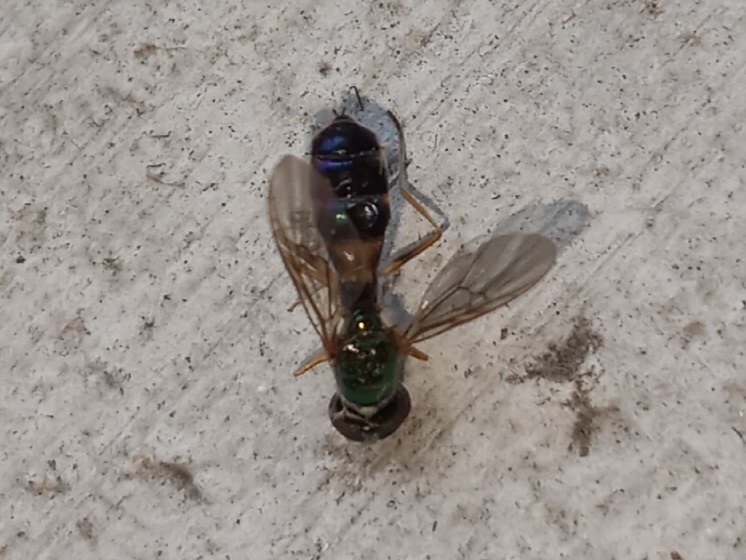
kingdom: Animalia
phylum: Arthropoda
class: Insecta
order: Diptera
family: Stratiomyidae
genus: Sargus
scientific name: Sargus fasciatus
